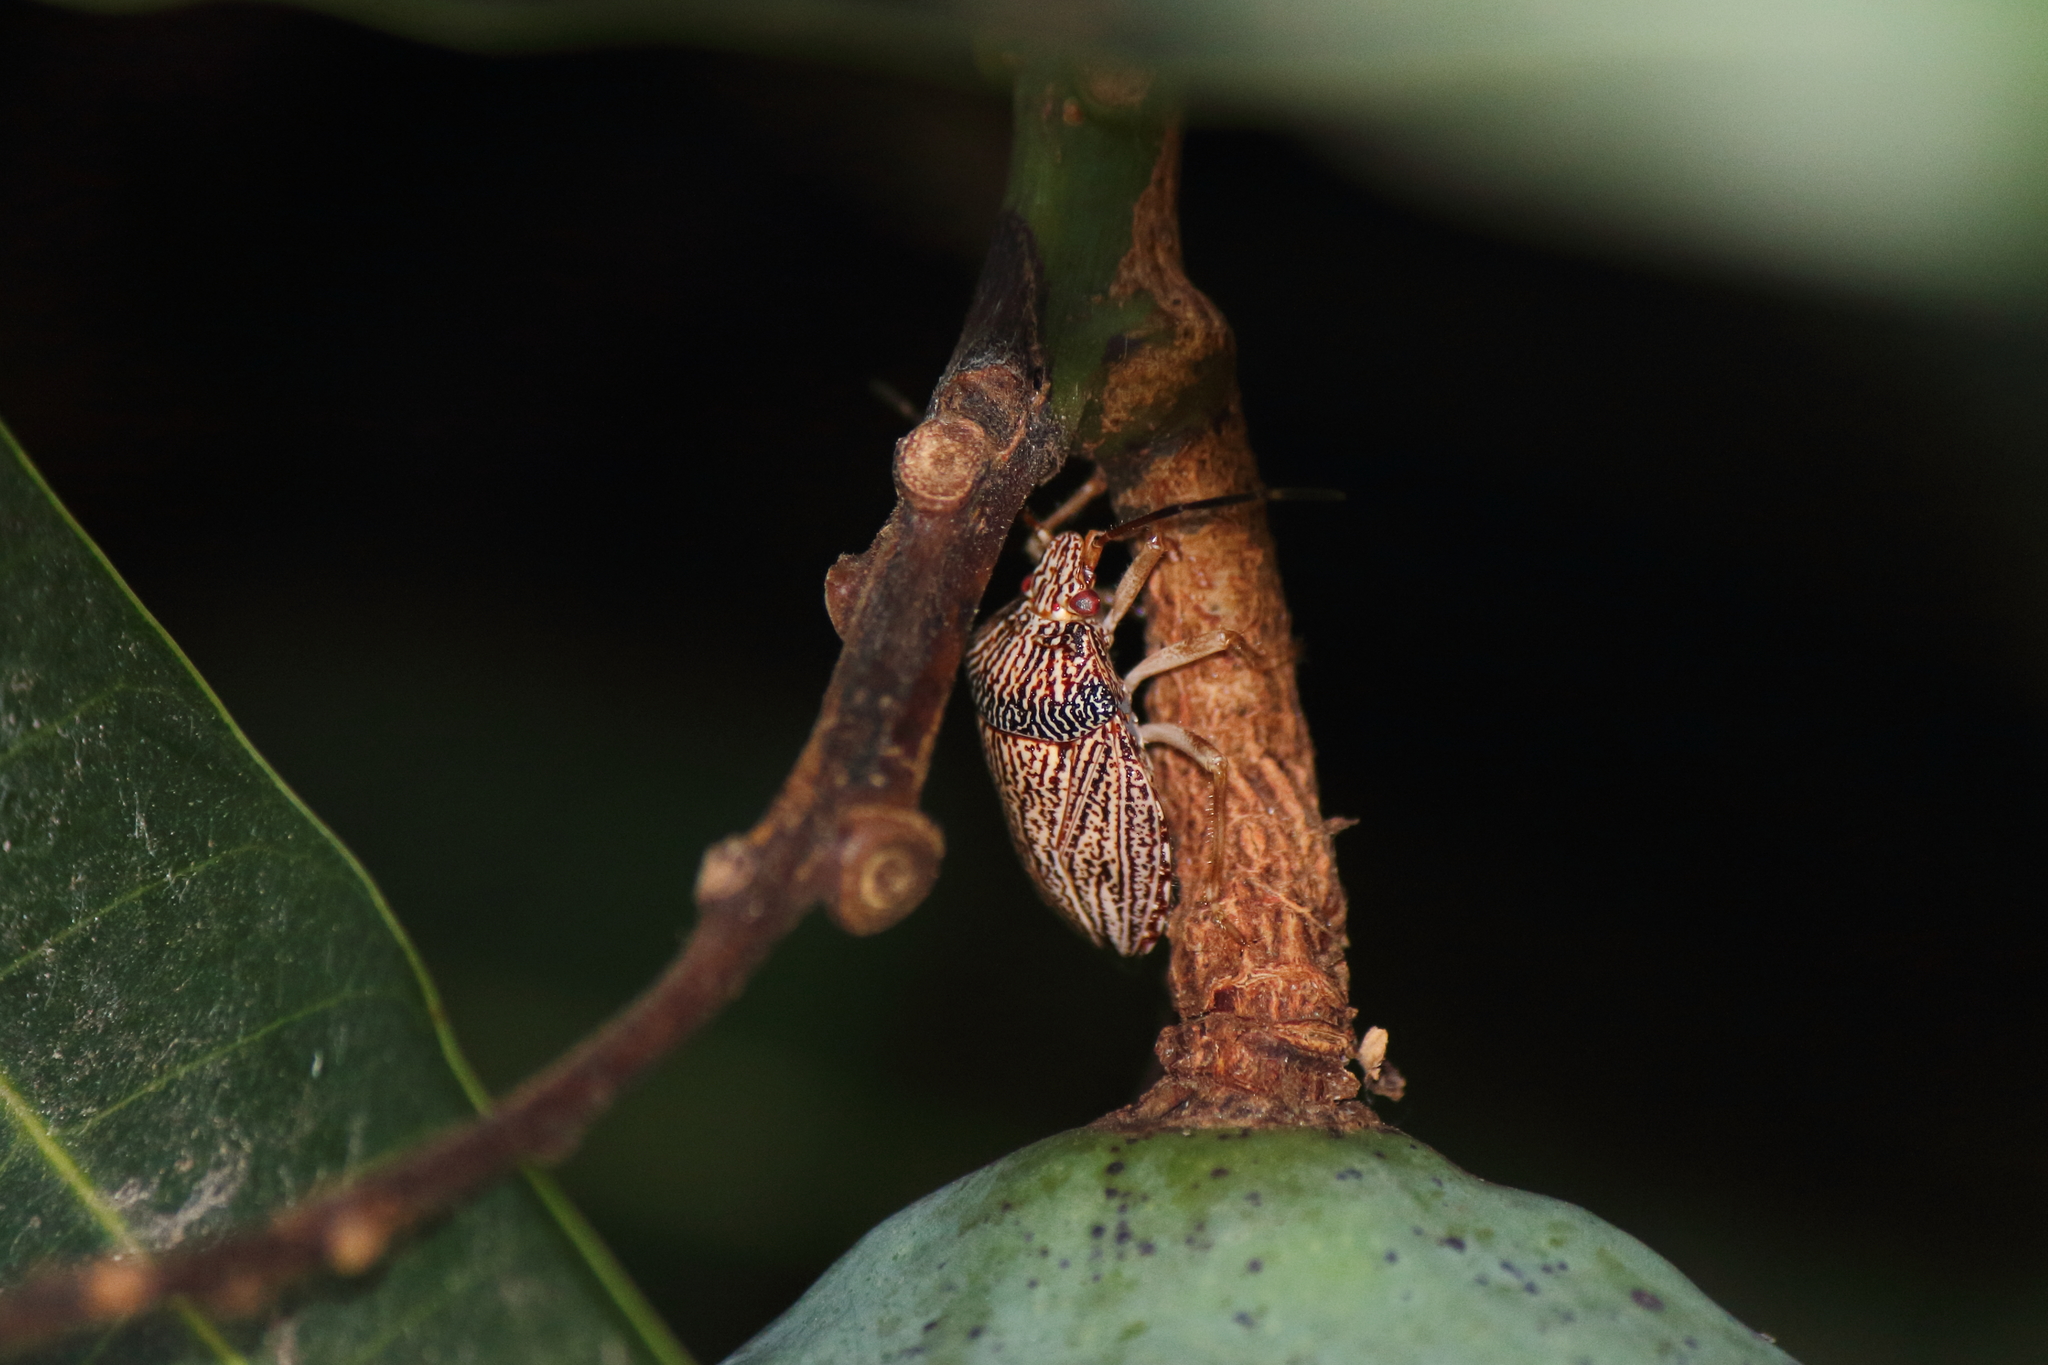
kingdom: Animalia
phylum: Arthropoda
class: Insecta
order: Hemiptera
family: Pentatomidae
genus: Antiteuchus
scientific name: Antiteuchus macraspis
